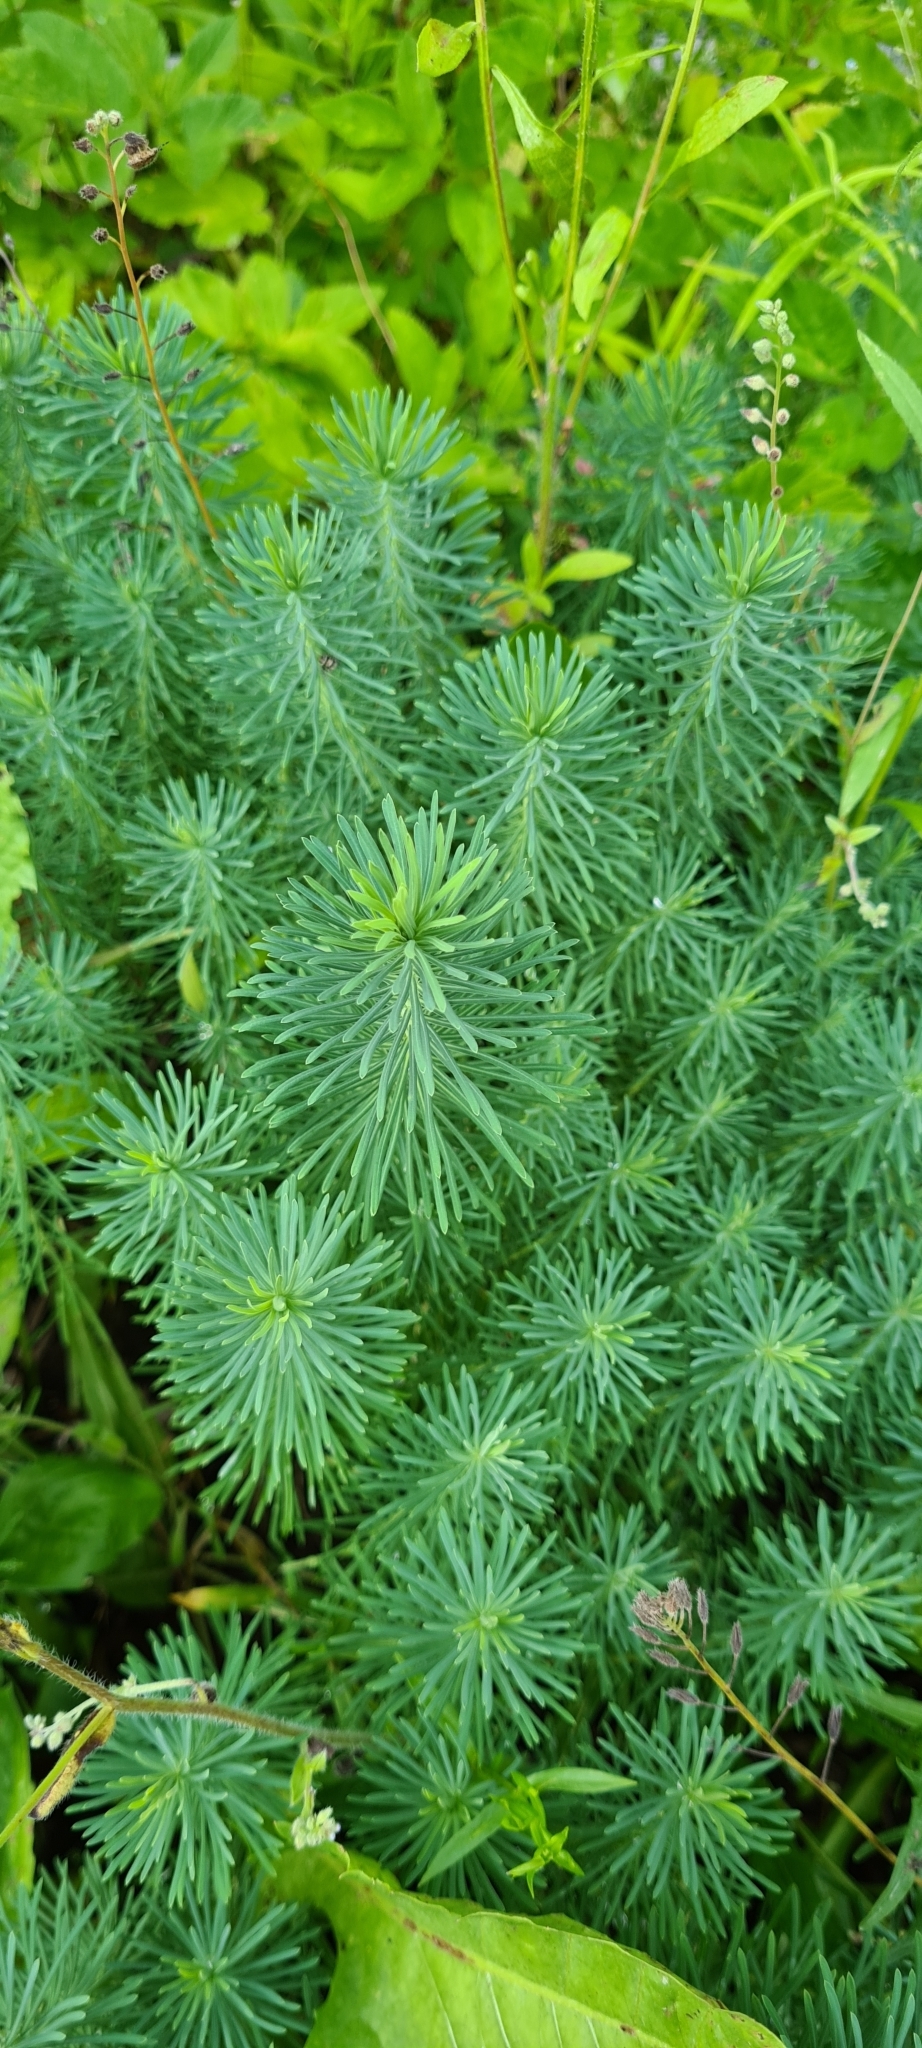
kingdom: Plantae
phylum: Tracheophyta
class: Magnoliopsida
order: Malpighiales
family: Euphorbiaceae
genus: Euphorbia
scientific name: Euphorbia cyparissias
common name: Cypress spurge
